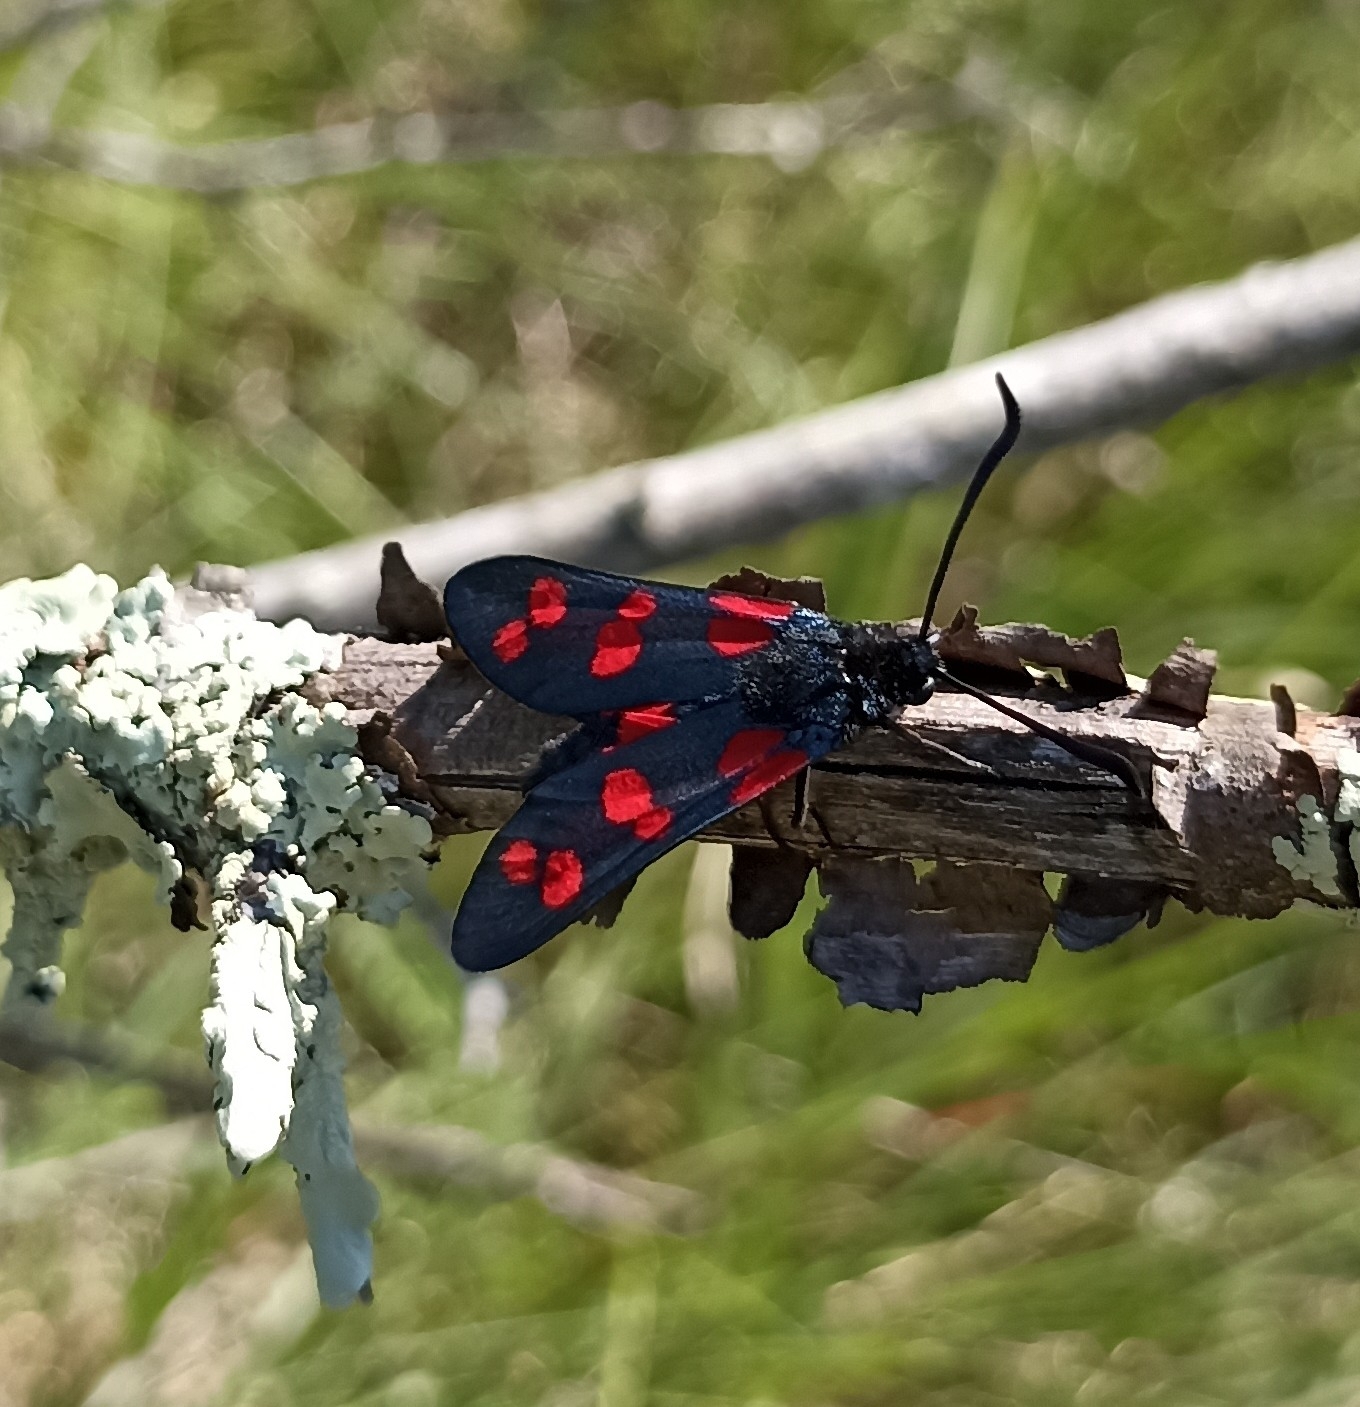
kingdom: Animalia
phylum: Arthropoda
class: Insecta
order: Lepidoptera
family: Zygaenidae
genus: Zygaena
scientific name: Zygaena filipendulae
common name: Six-spot burnet
